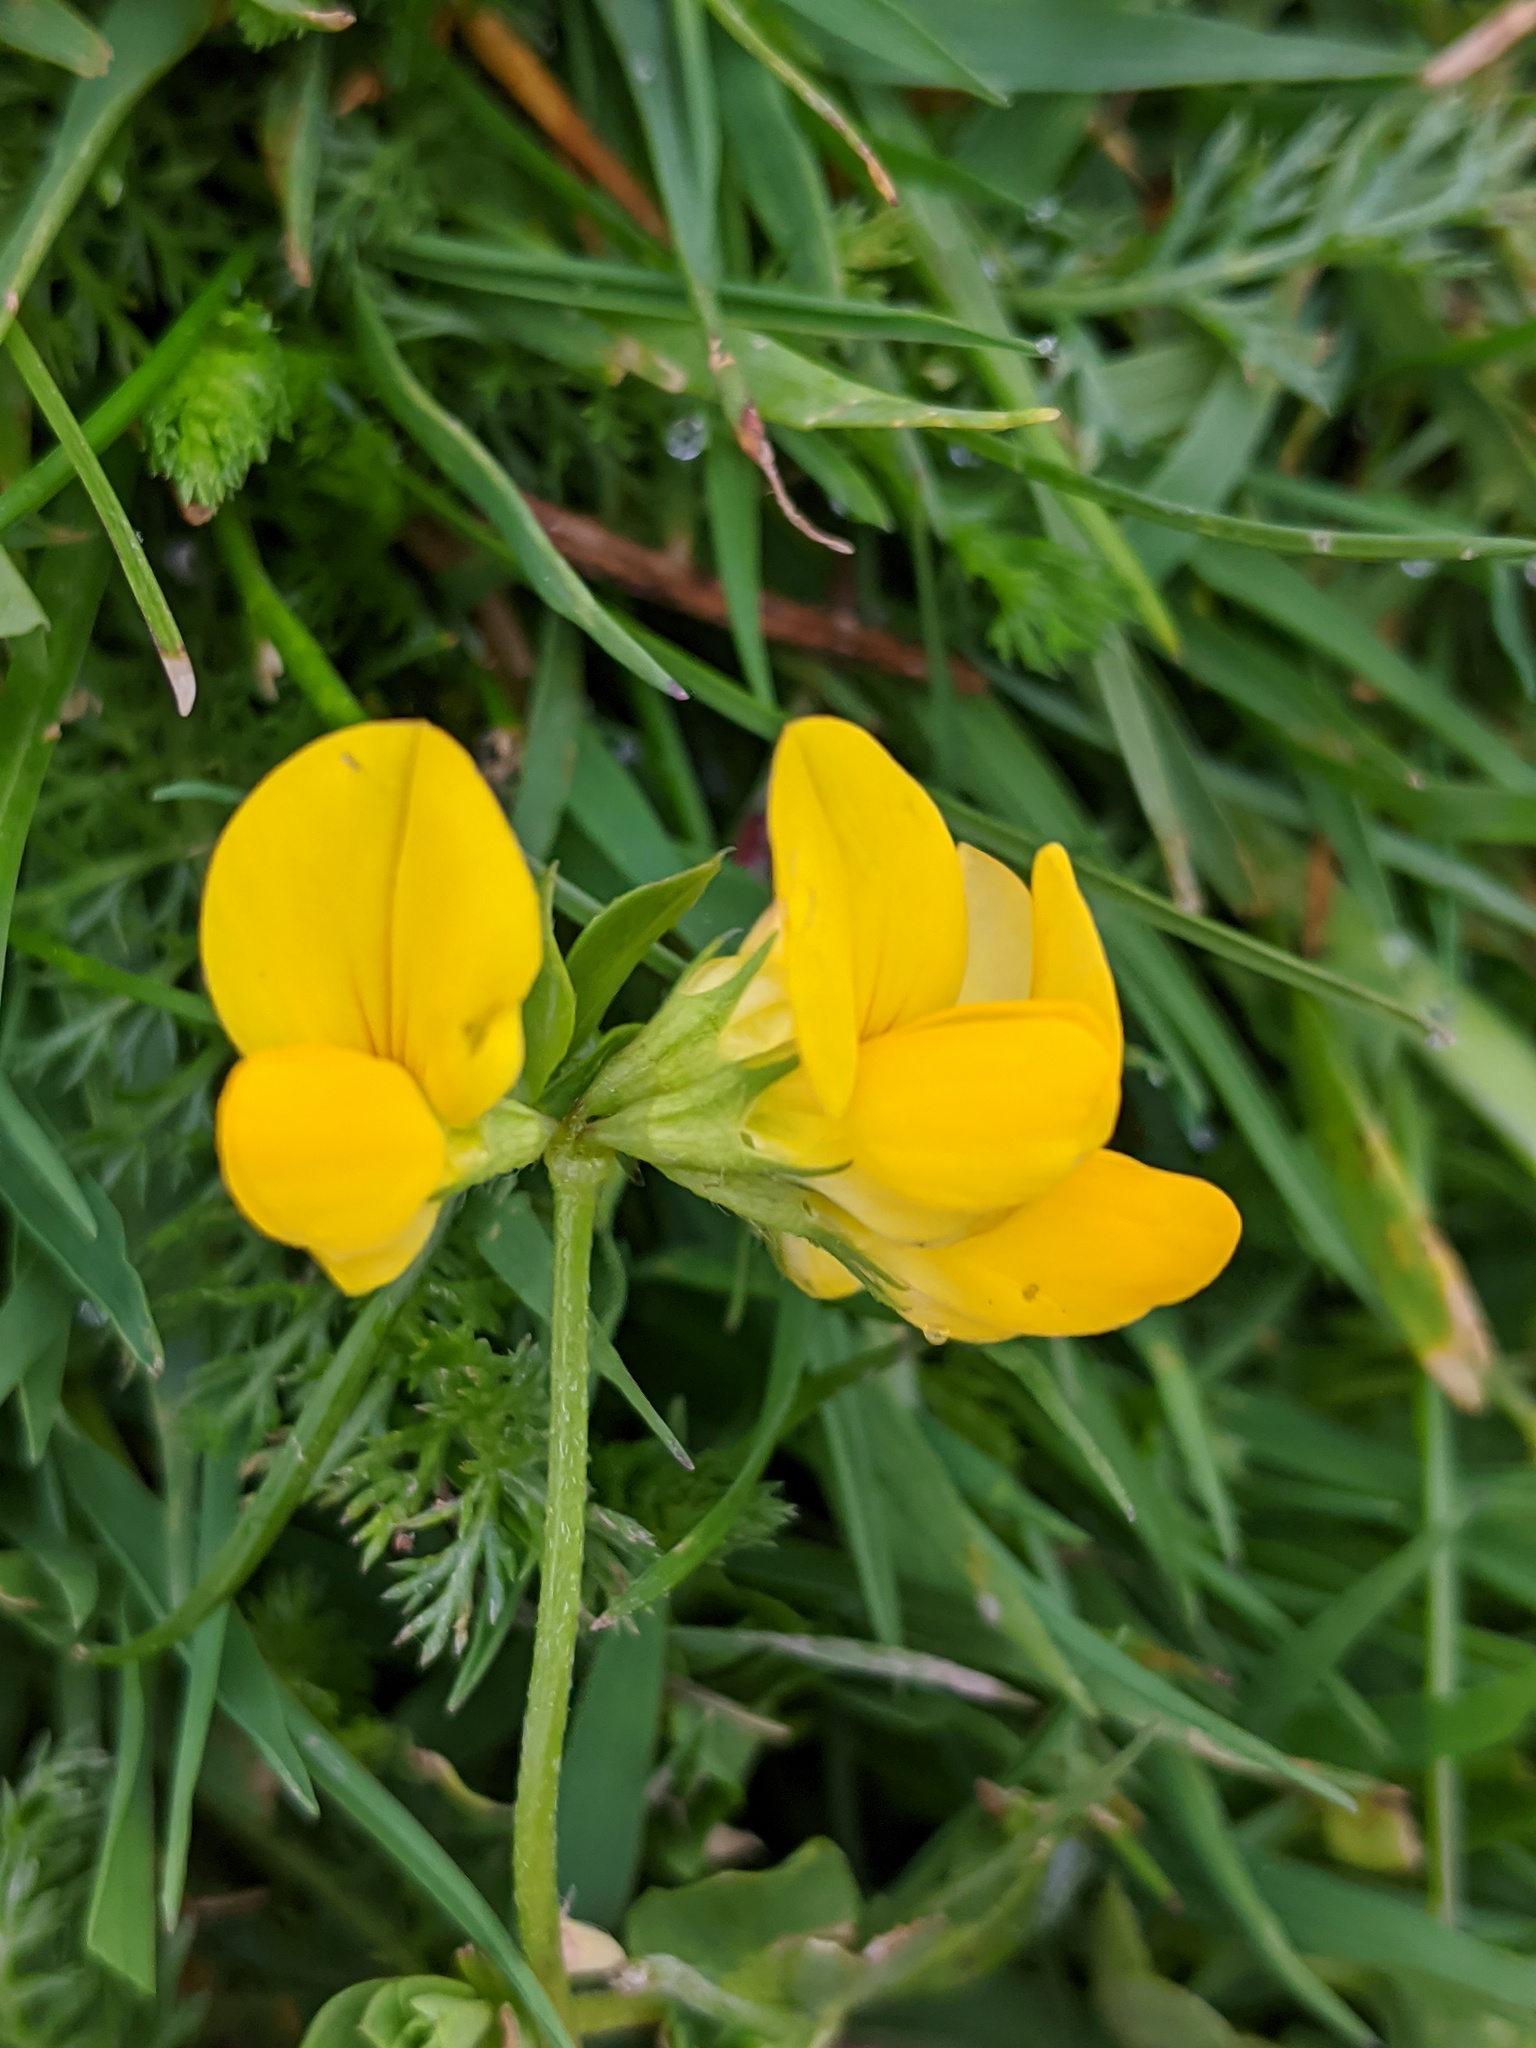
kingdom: Plantae
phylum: Tracheophyta
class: Magnoliopsida
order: Fabales
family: Fabaceae
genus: Lotus
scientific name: Lotus corniculatus
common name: Common bird's-foot-trefoil
